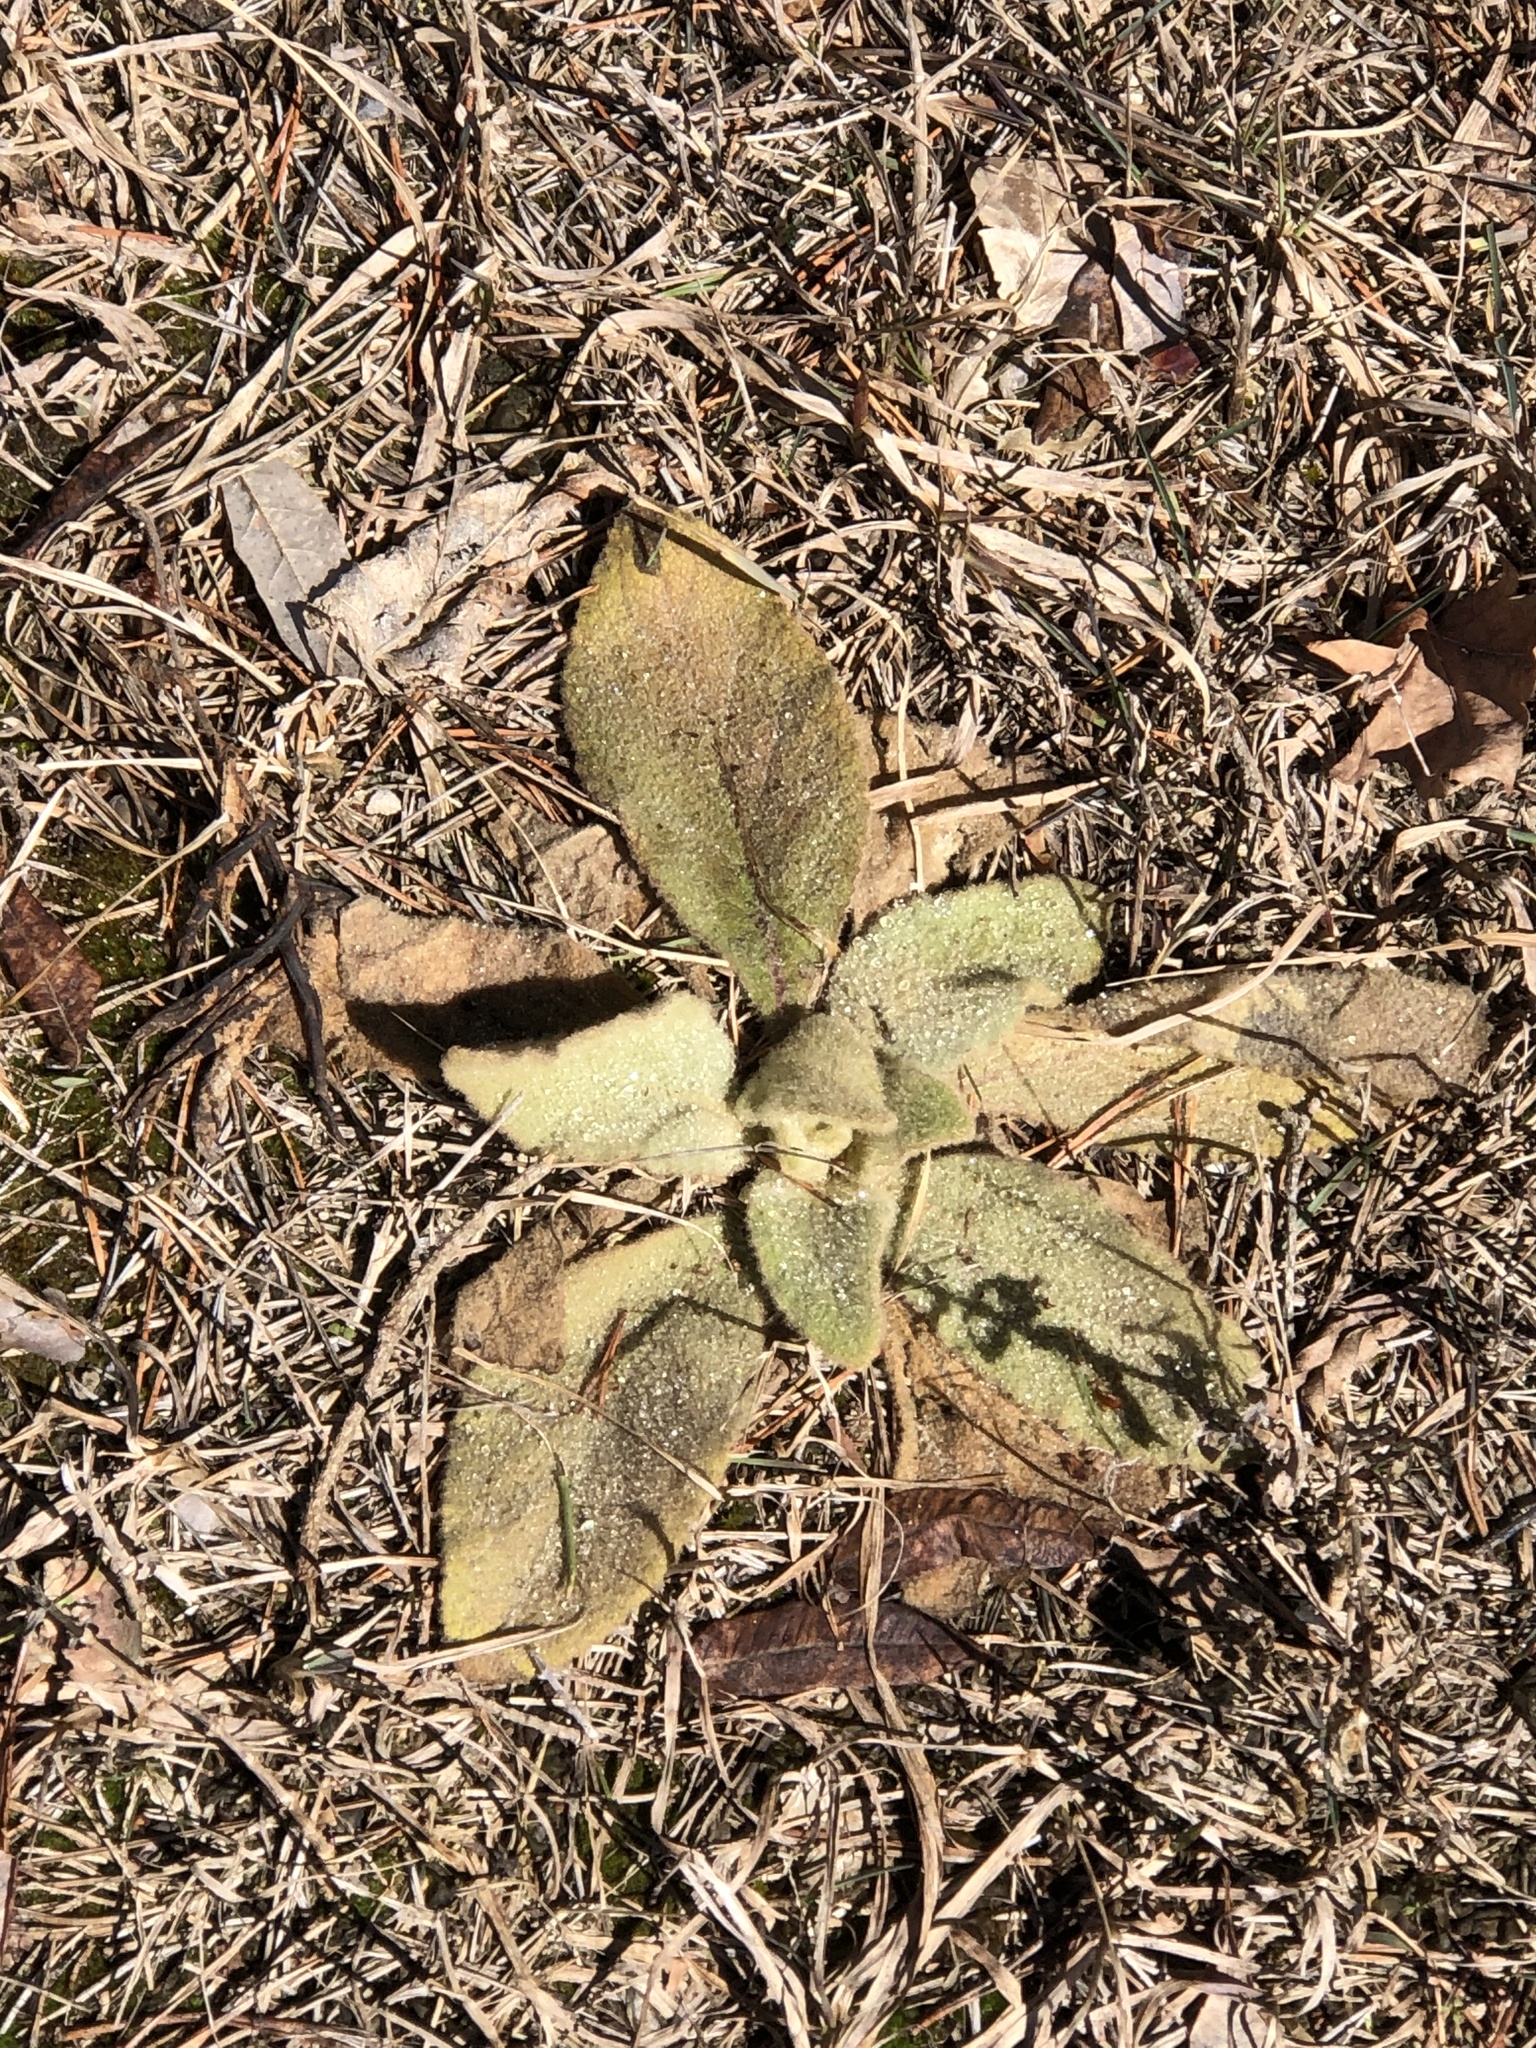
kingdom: Plantae
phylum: Tracheophyta
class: Magnoliopsida
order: Lamiales
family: Scrophulariaceae
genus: Verbascum
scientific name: Verbascum thapsus
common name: Common mullein
